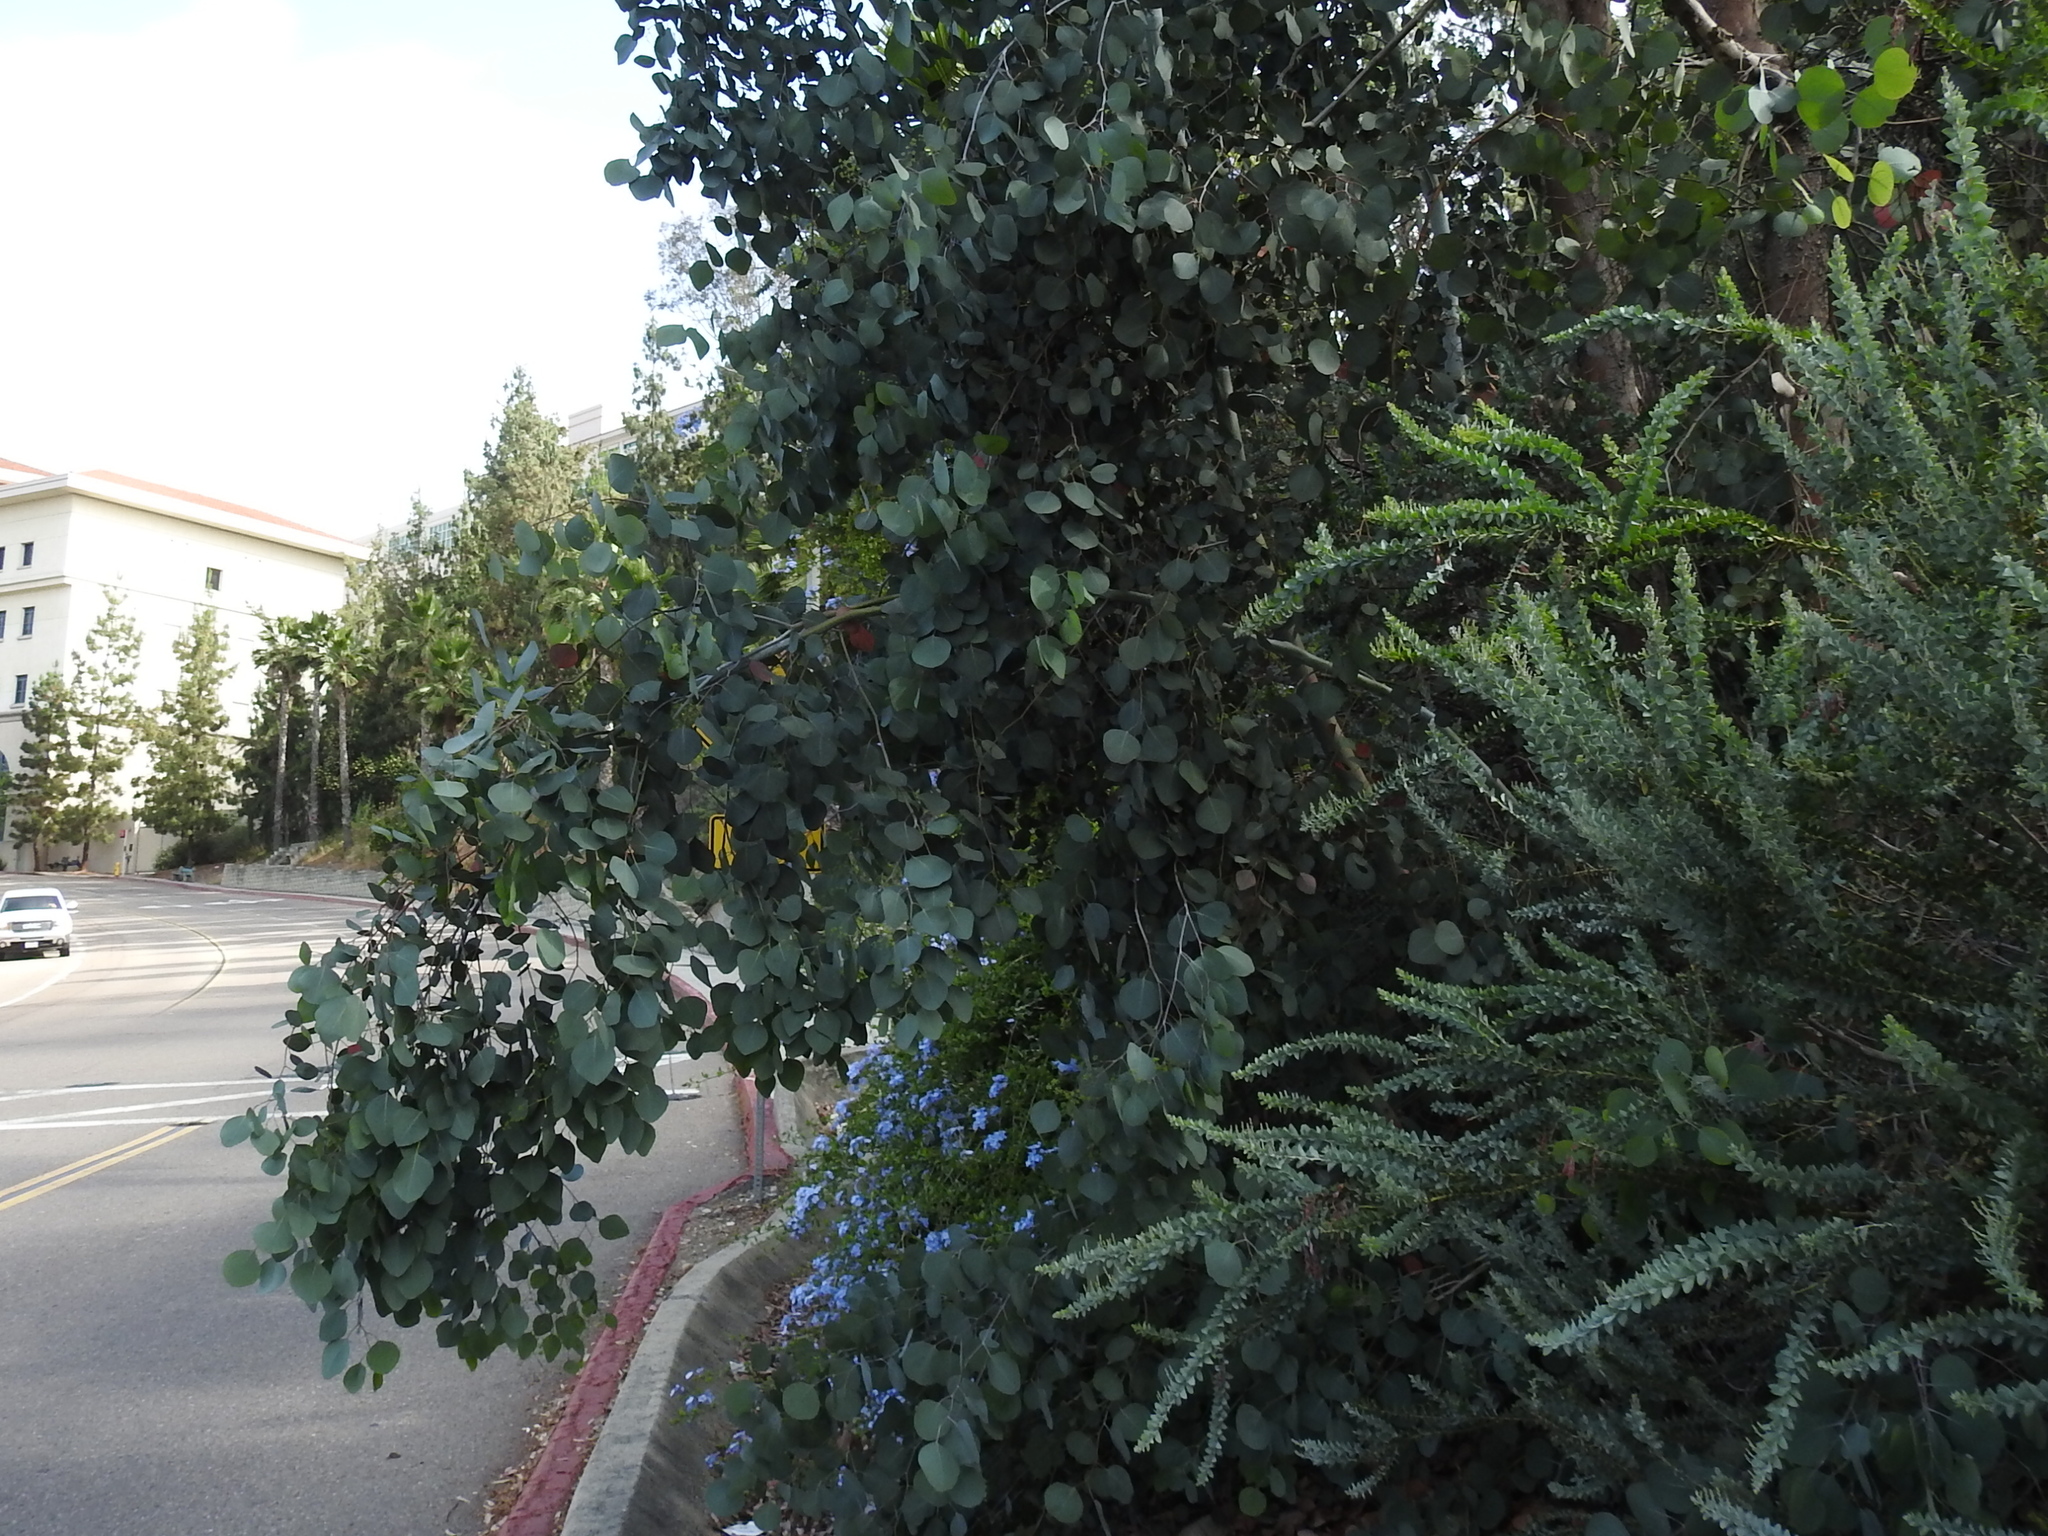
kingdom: Plantae
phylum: Tracheophyta
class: Magnoliopsida
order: Myrtales
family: Myrtaceae
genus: Eucalyptus
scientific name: Eucalyptus polyanthemos
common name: Red-box
